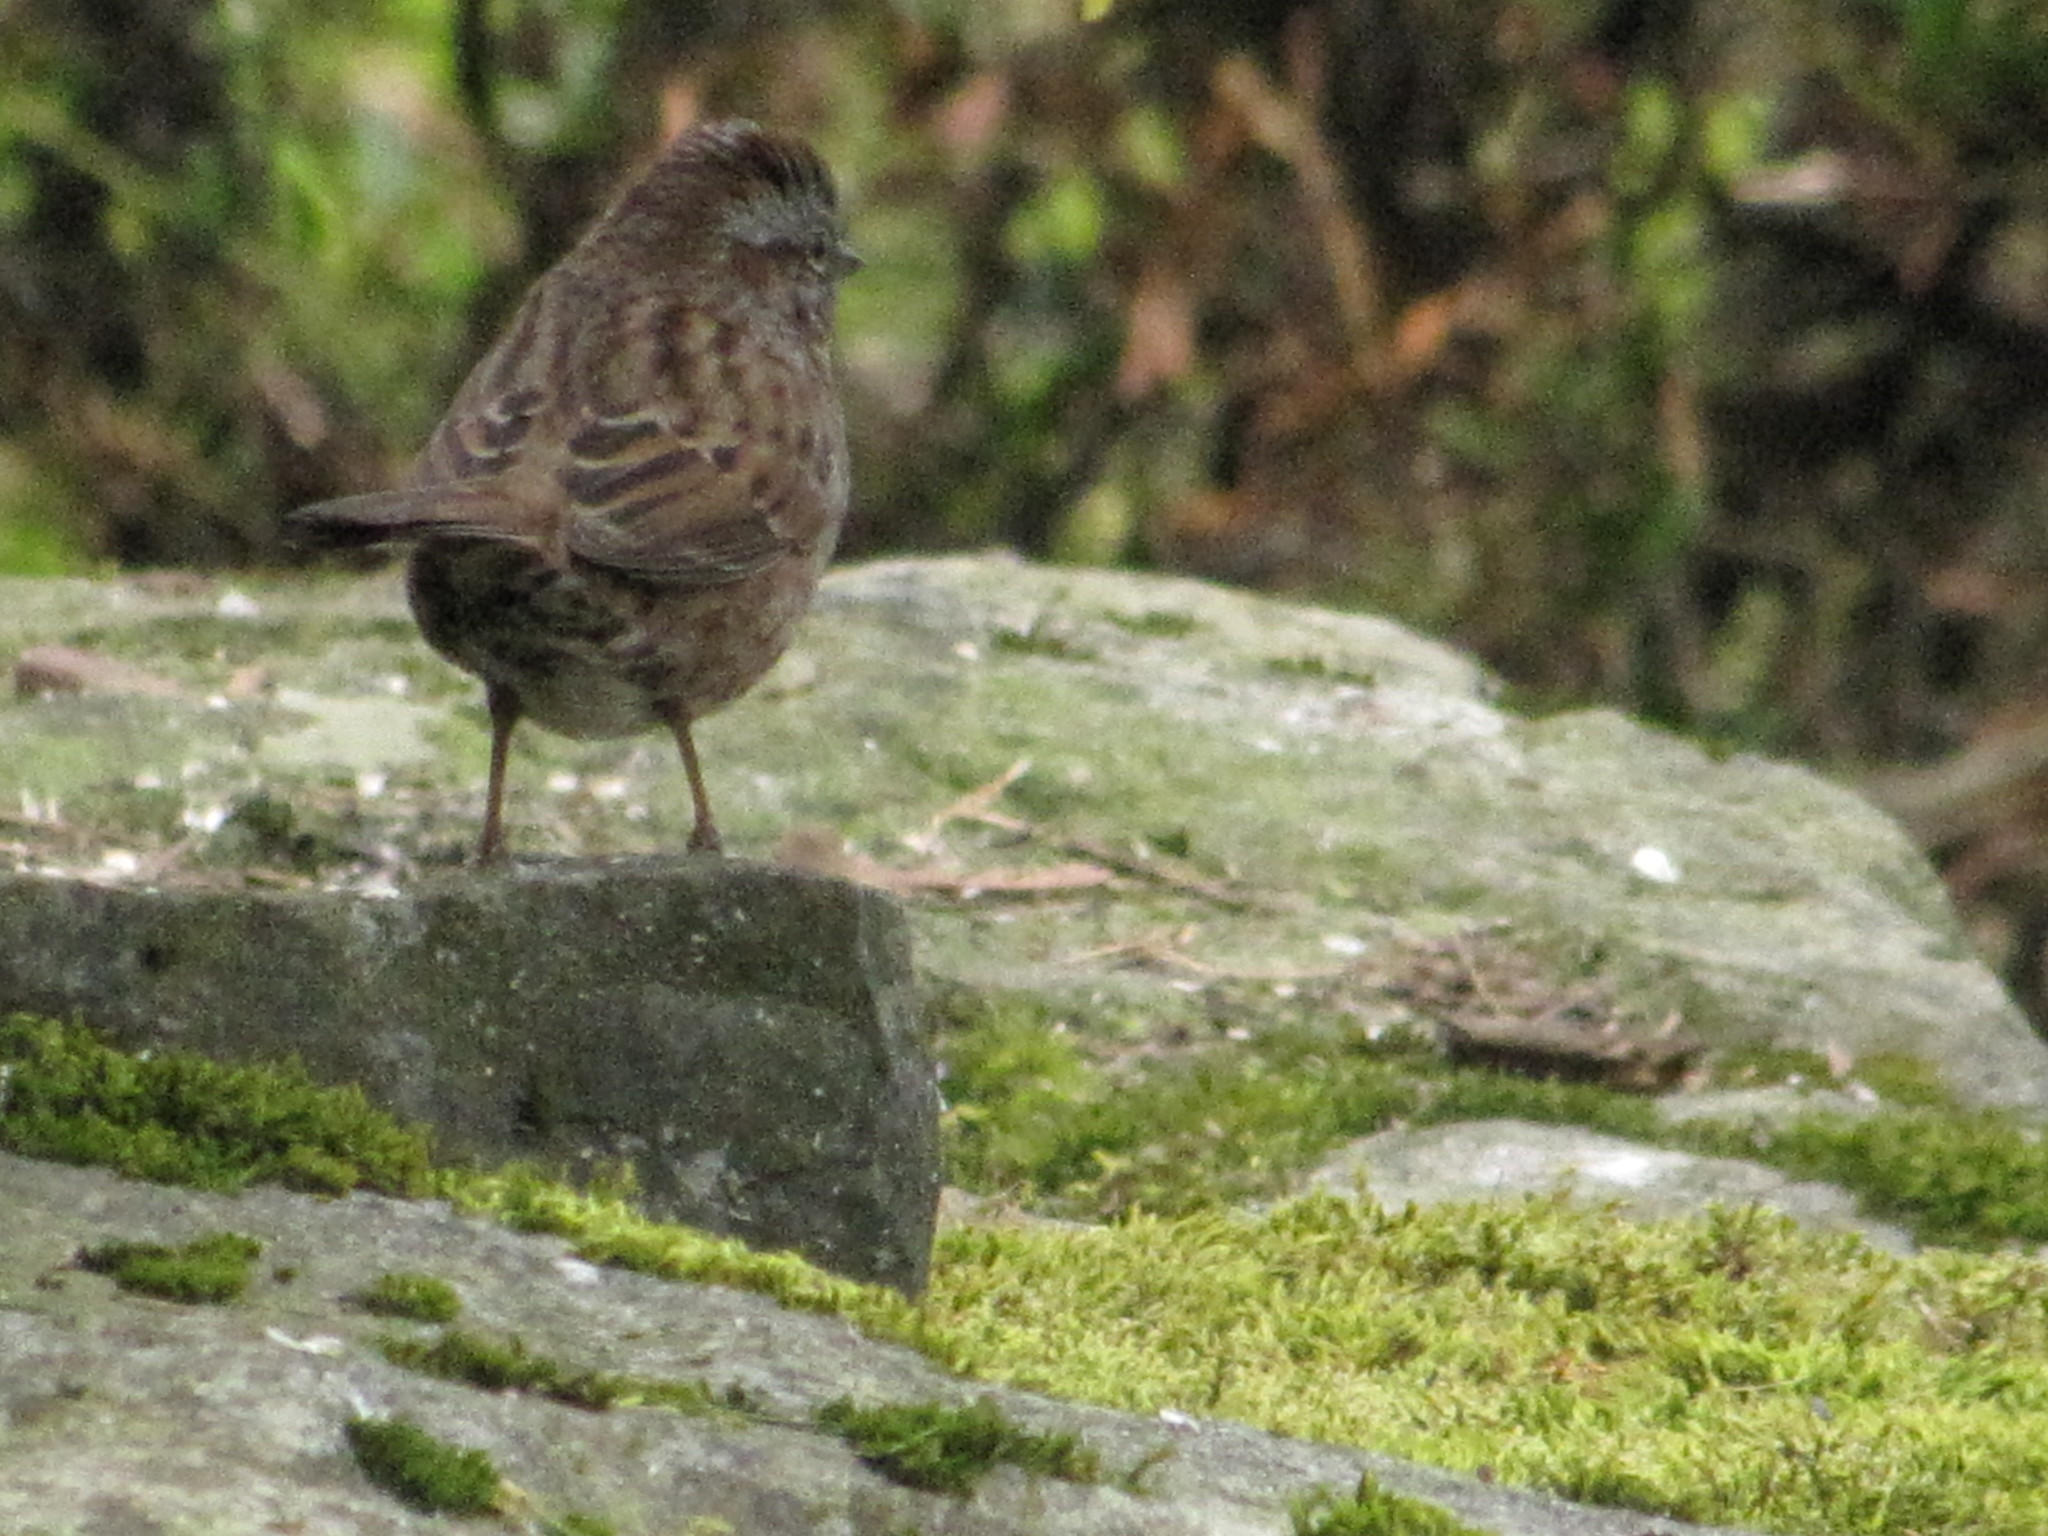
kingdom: Animalia
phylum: Chordata
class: Aves
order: Passeriformes
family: Passerellidae
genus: Melospiza
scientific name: Melospiza melodia
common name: Song sparrow
